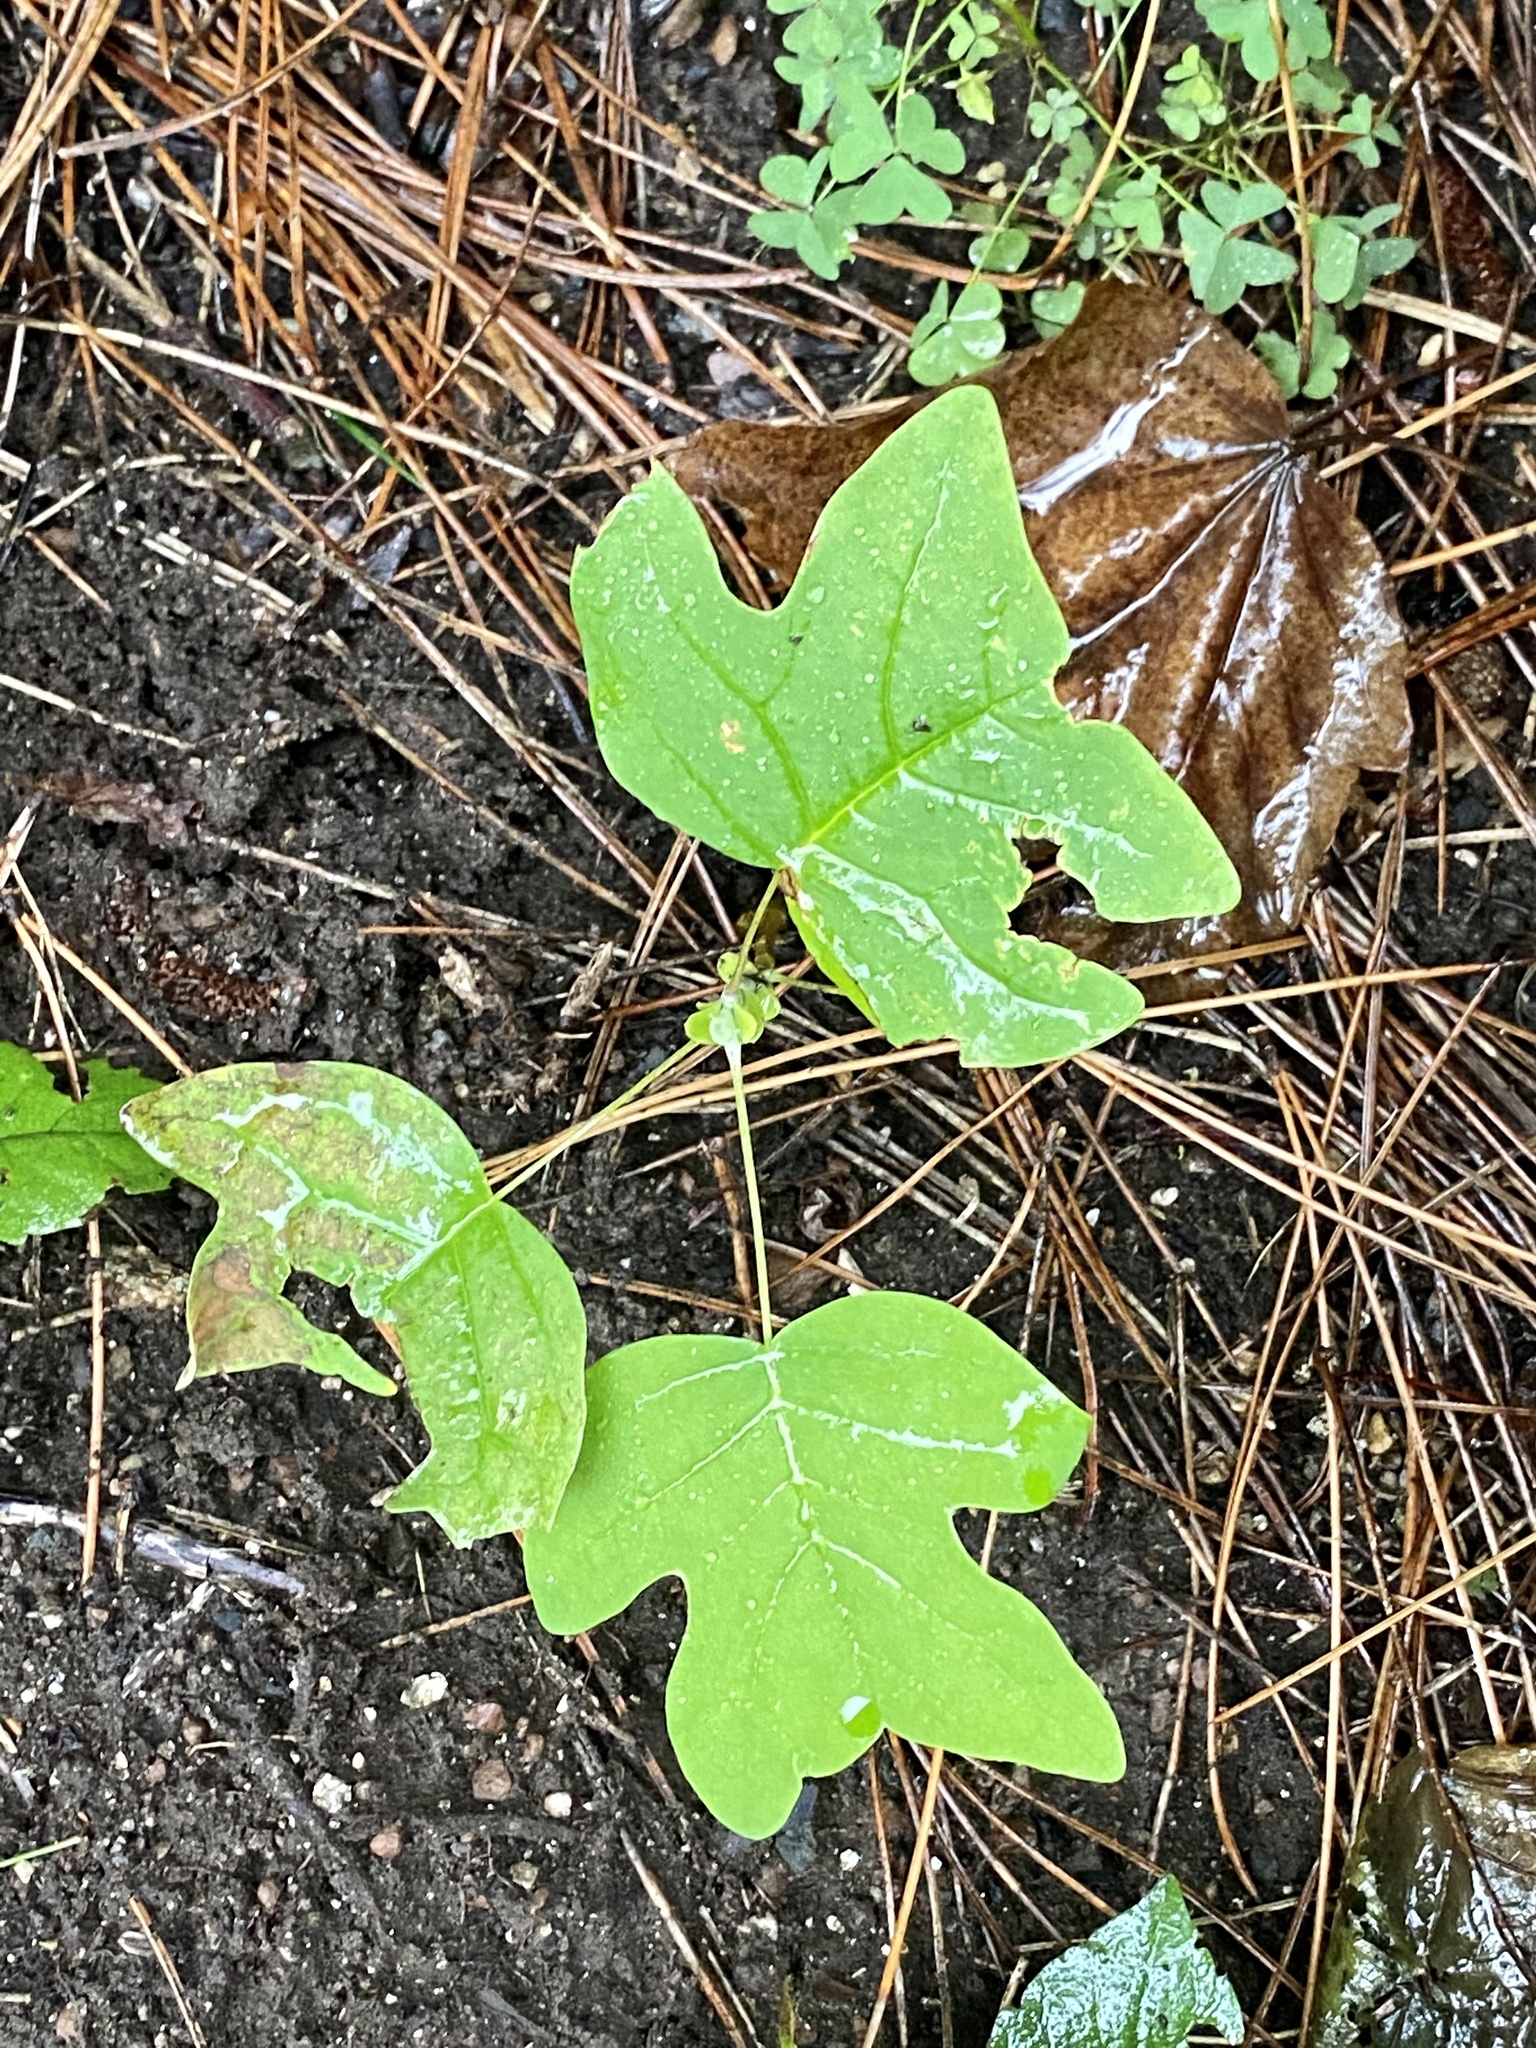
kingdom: Plantae
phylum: Tracheophyta
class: Magnoliopsida
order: Magnoliales
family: Magnoliaceae
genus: Liriodendron
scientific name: Liriodendron tulipifera
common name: Tulip tree
